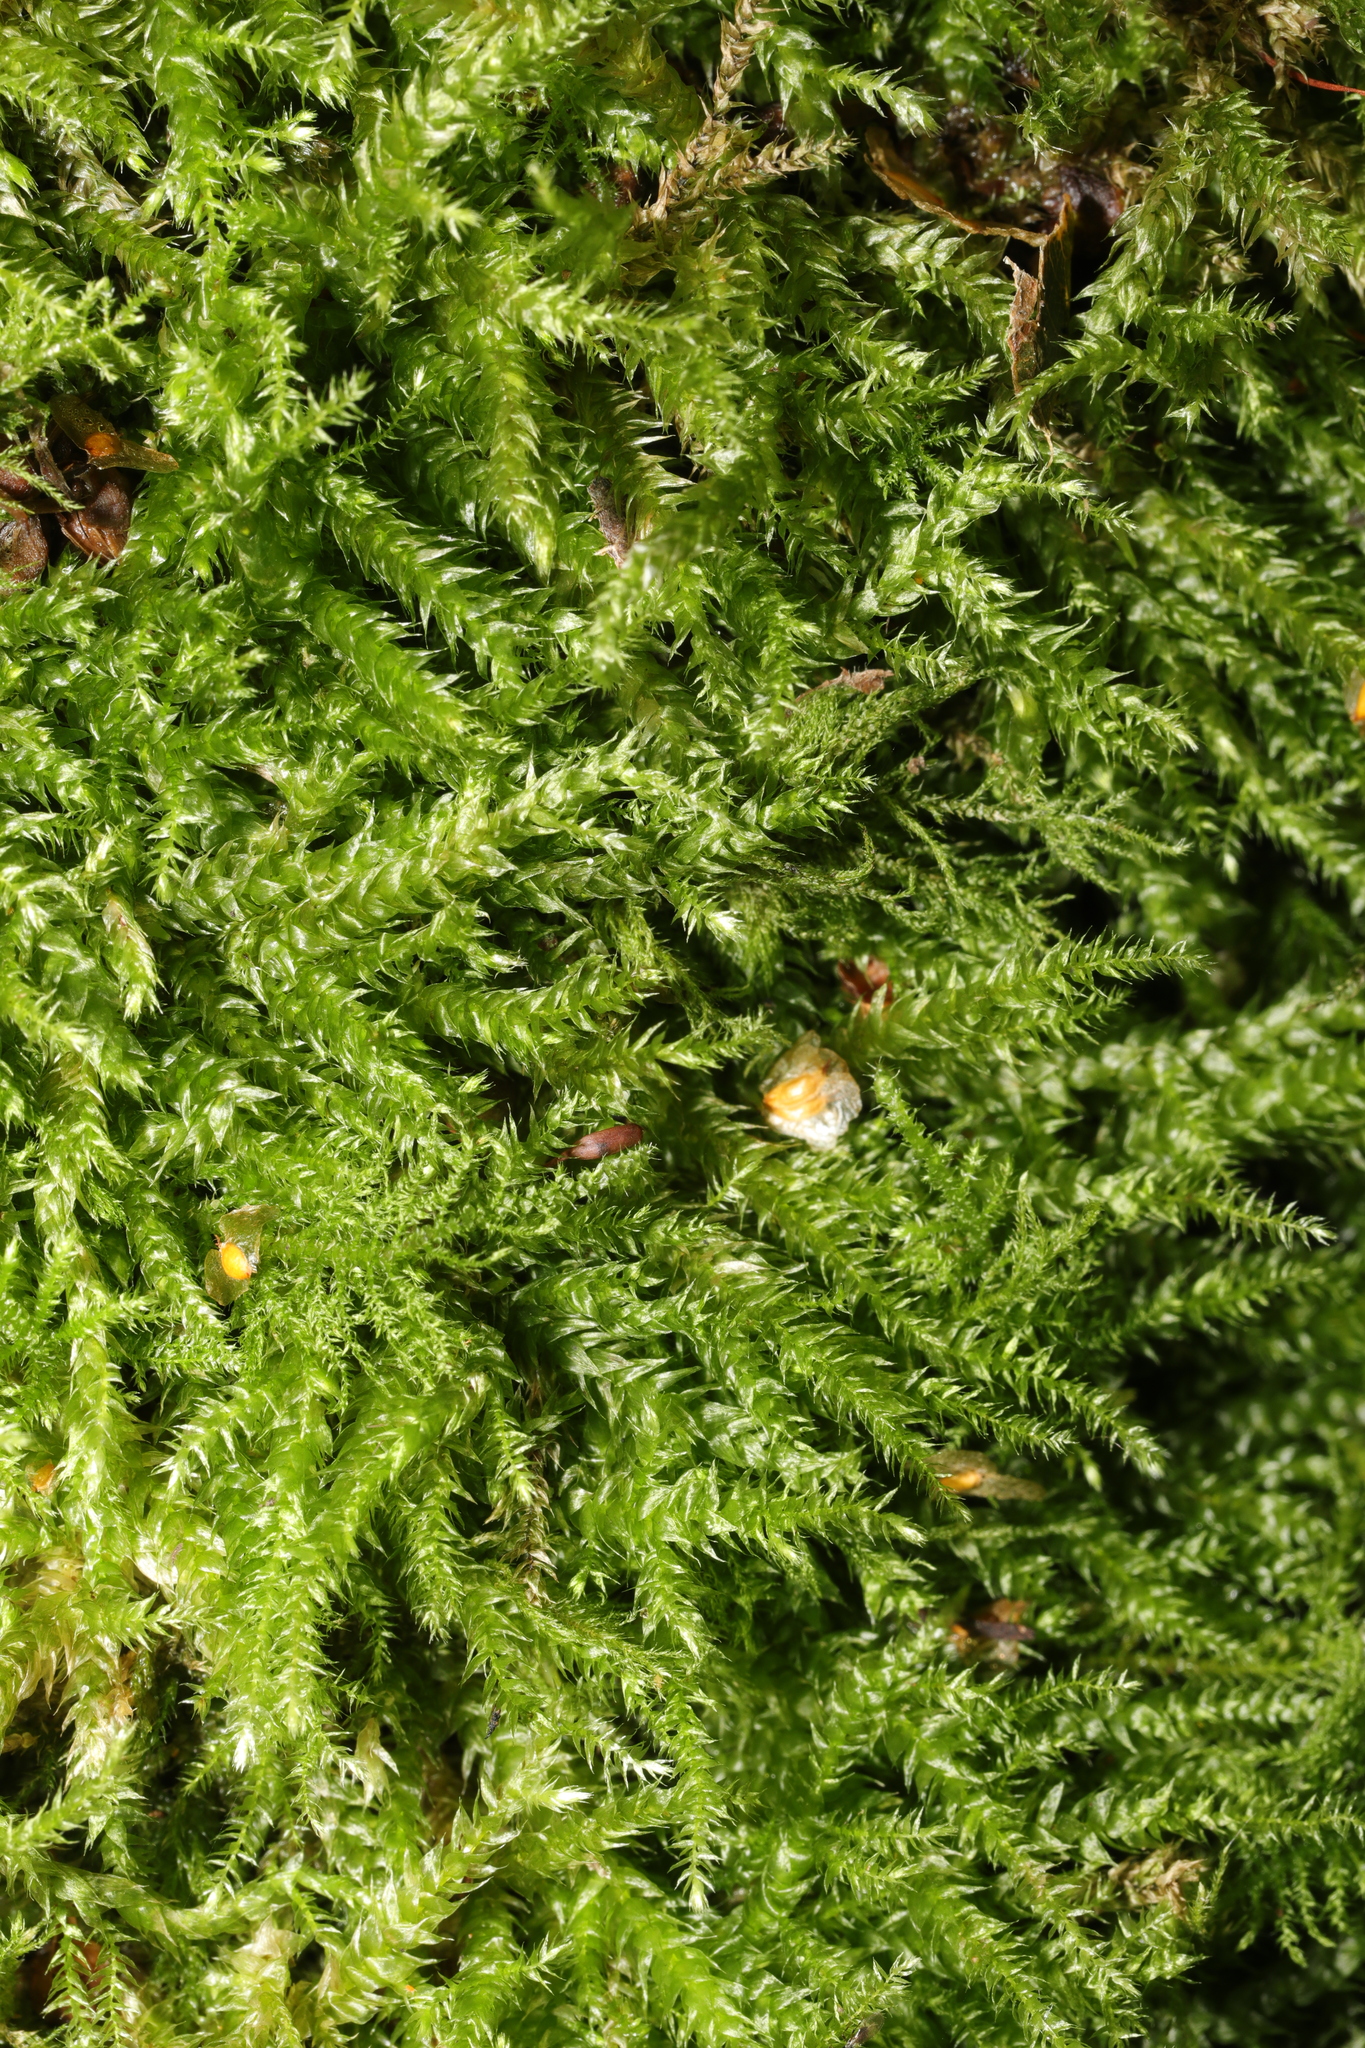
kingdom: Plantae
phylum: Bryophyta
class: Bryopsida
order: Hypnales
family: Brachytheciaceae
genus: Brachythecium
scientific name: Brachythecium rutabulum
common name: Rough-stalked feather-moss
